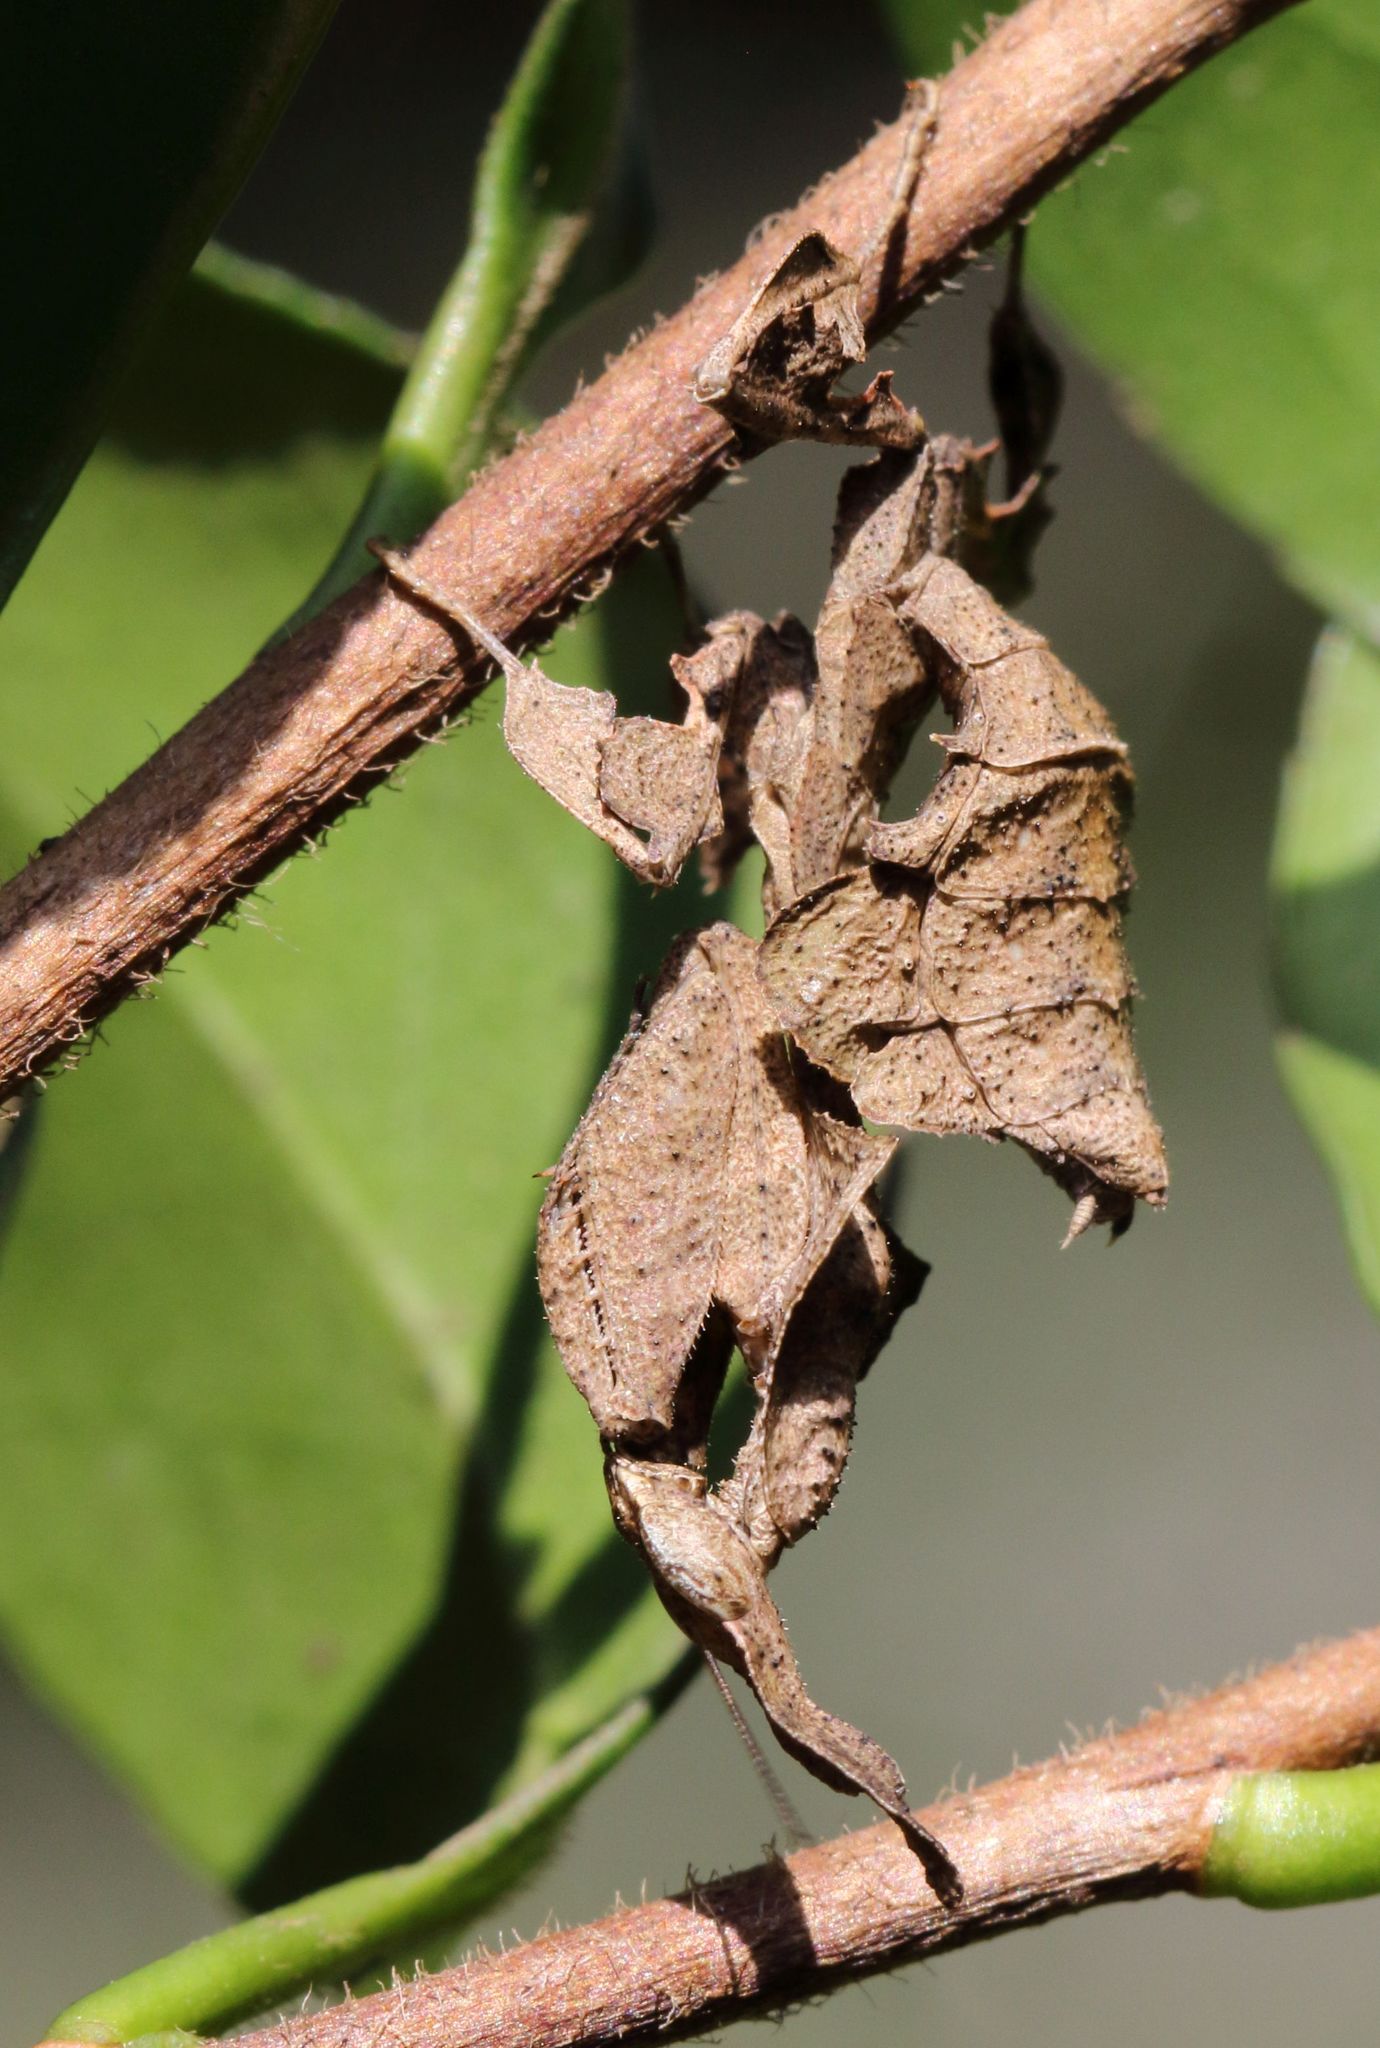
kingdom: Animalia
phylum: Arthropoda
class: Insecta
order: Mantodea
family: Hymenopodidae
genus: Phyllocrania
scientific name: Phyllocrania paradoxa
